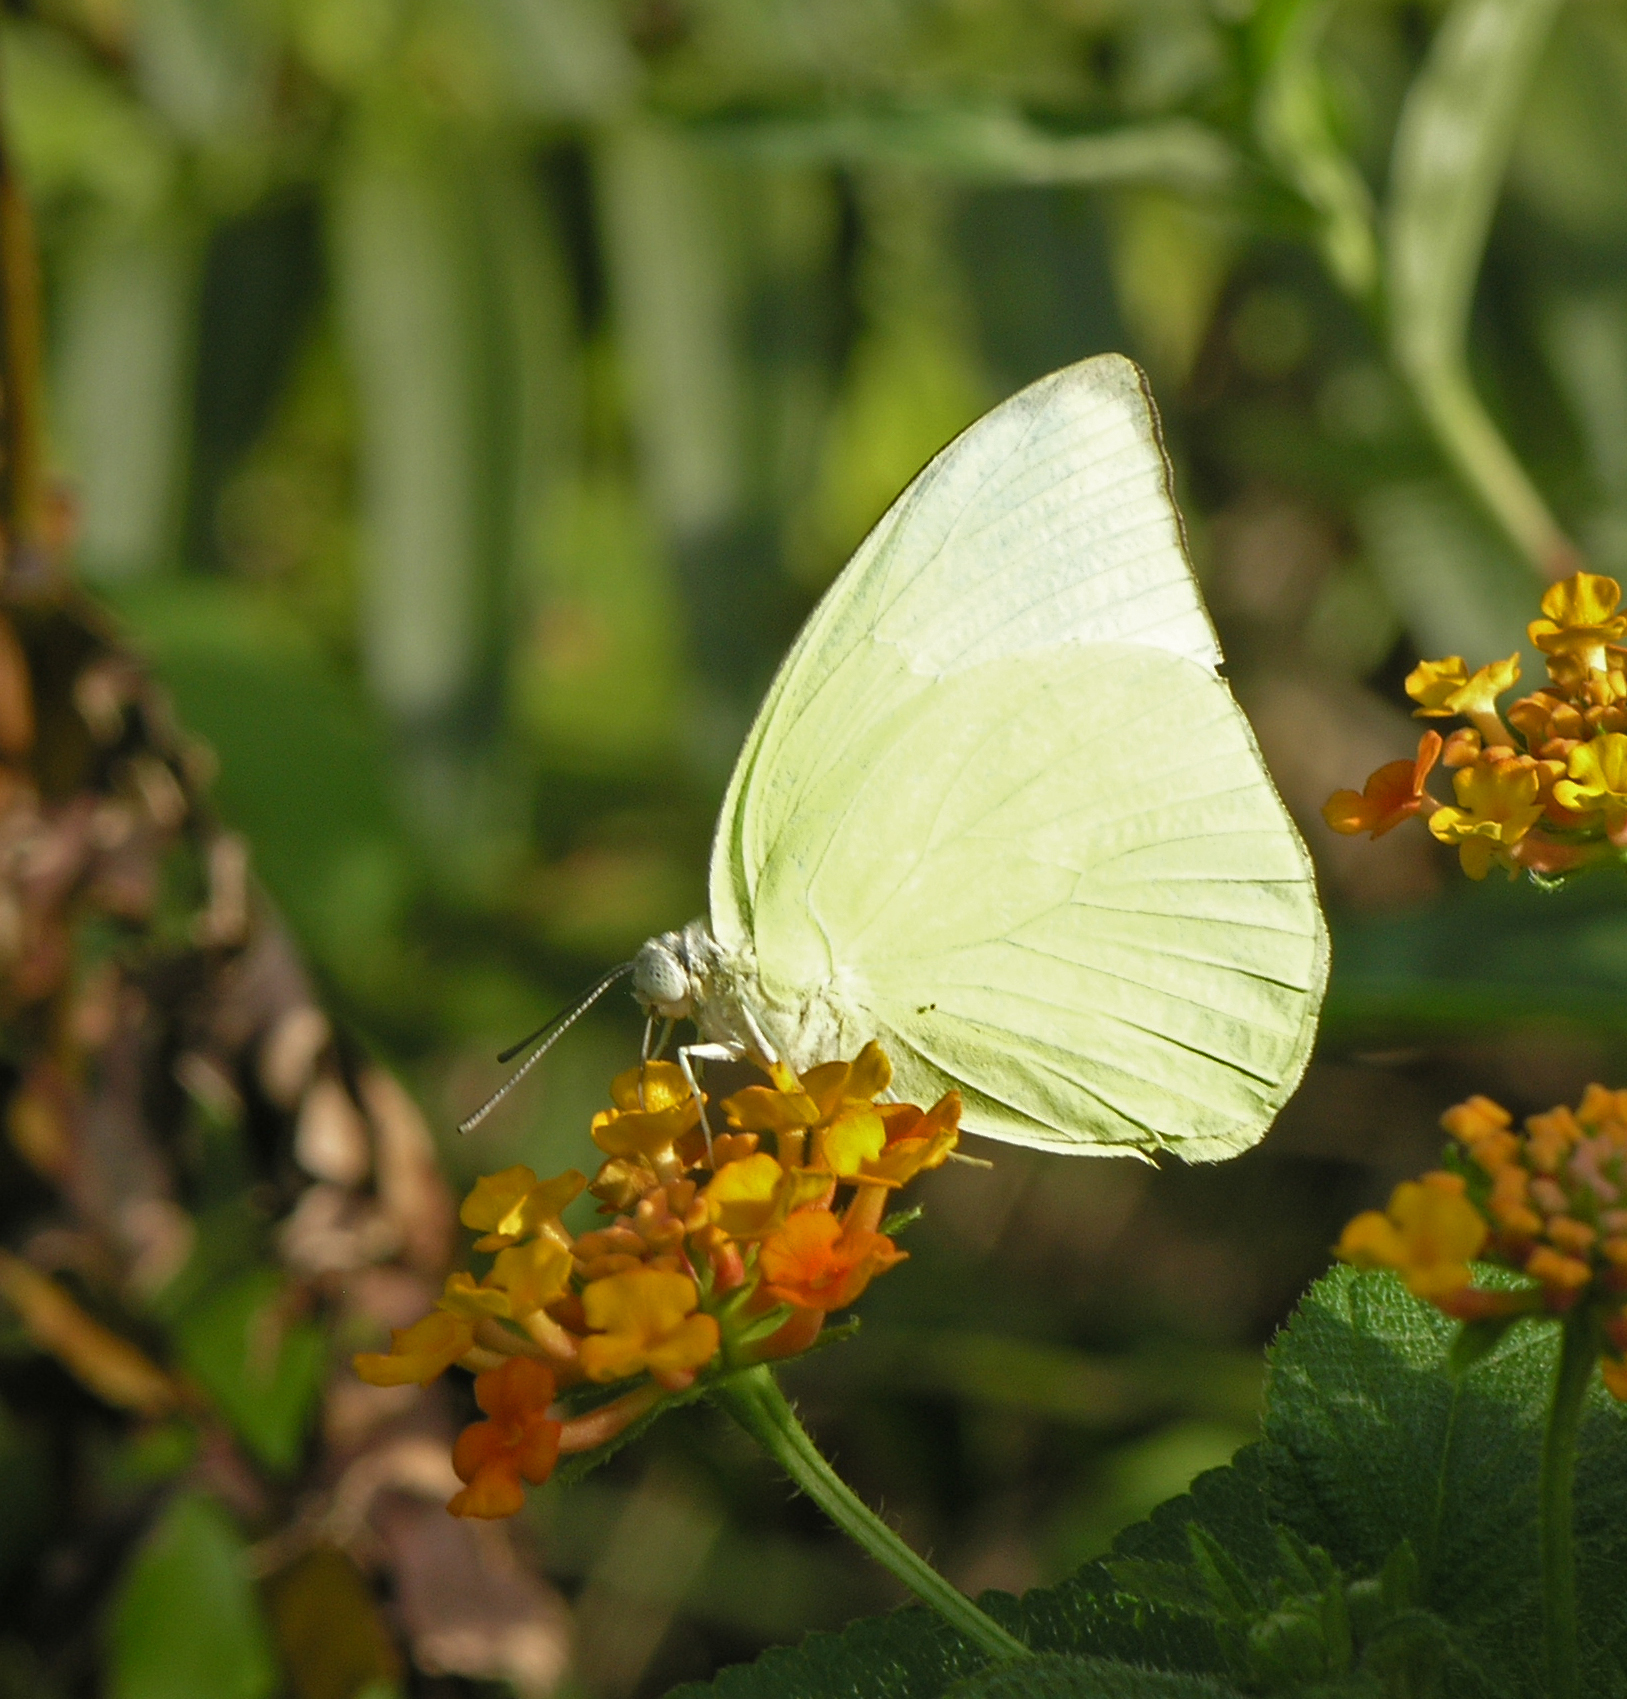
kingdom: Animalia
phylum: Arthropoda
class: Insecta
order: Lepidoptera
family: Pieridae
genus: Catopsilia
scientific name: Catopsilia pomona
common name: Common emigrant
